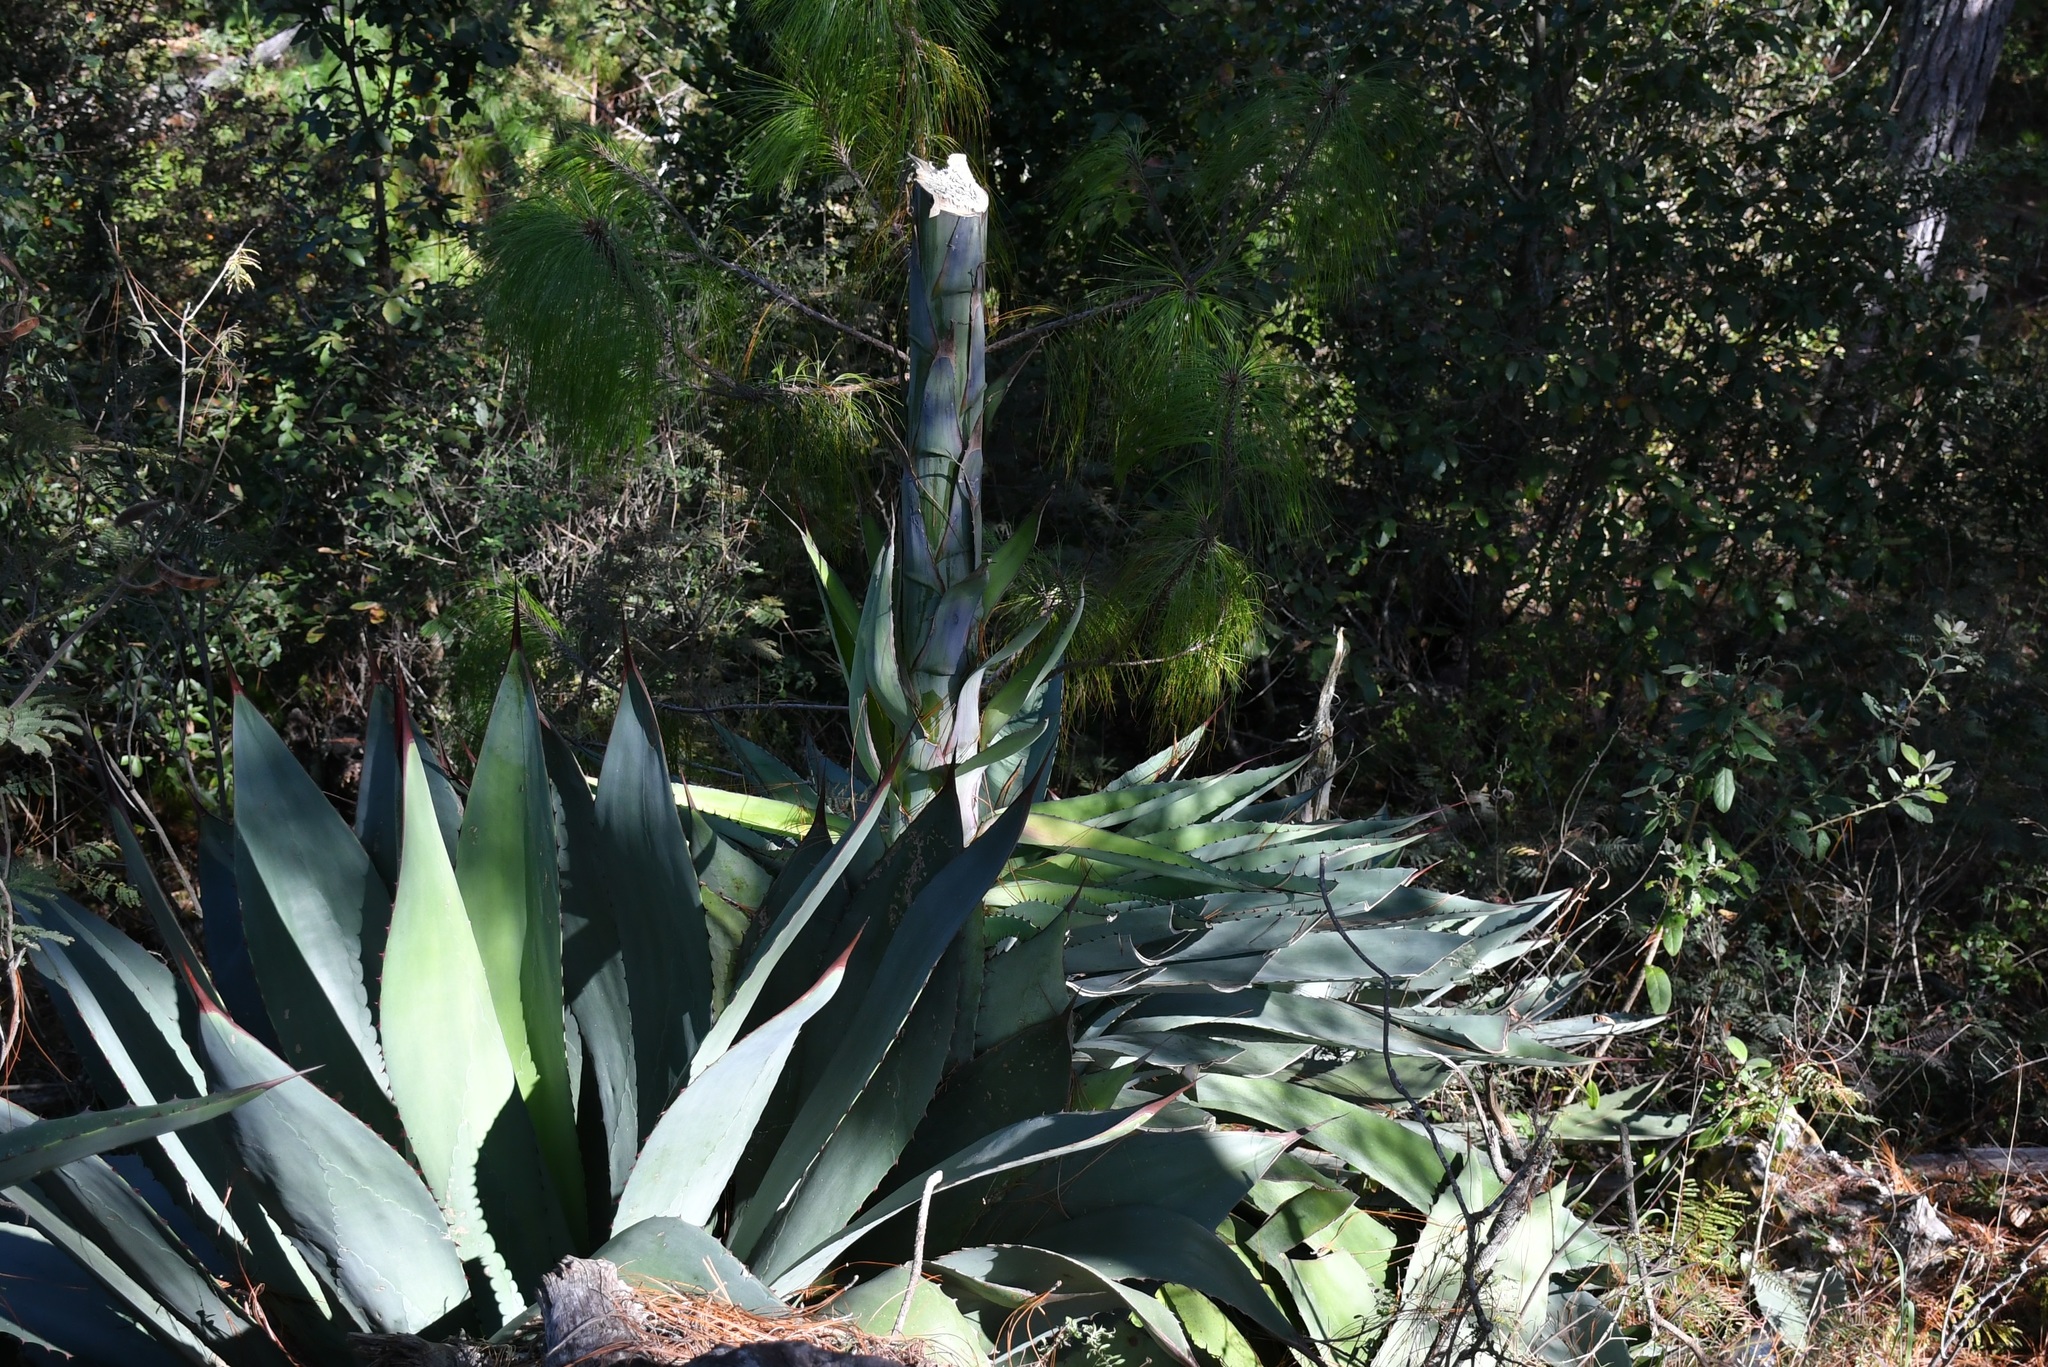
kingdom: Plantae
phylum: Tracheophyta
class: Liliopsida
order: Asparagales
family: Asparagaceae
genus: Agave
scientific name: Agave congesta
